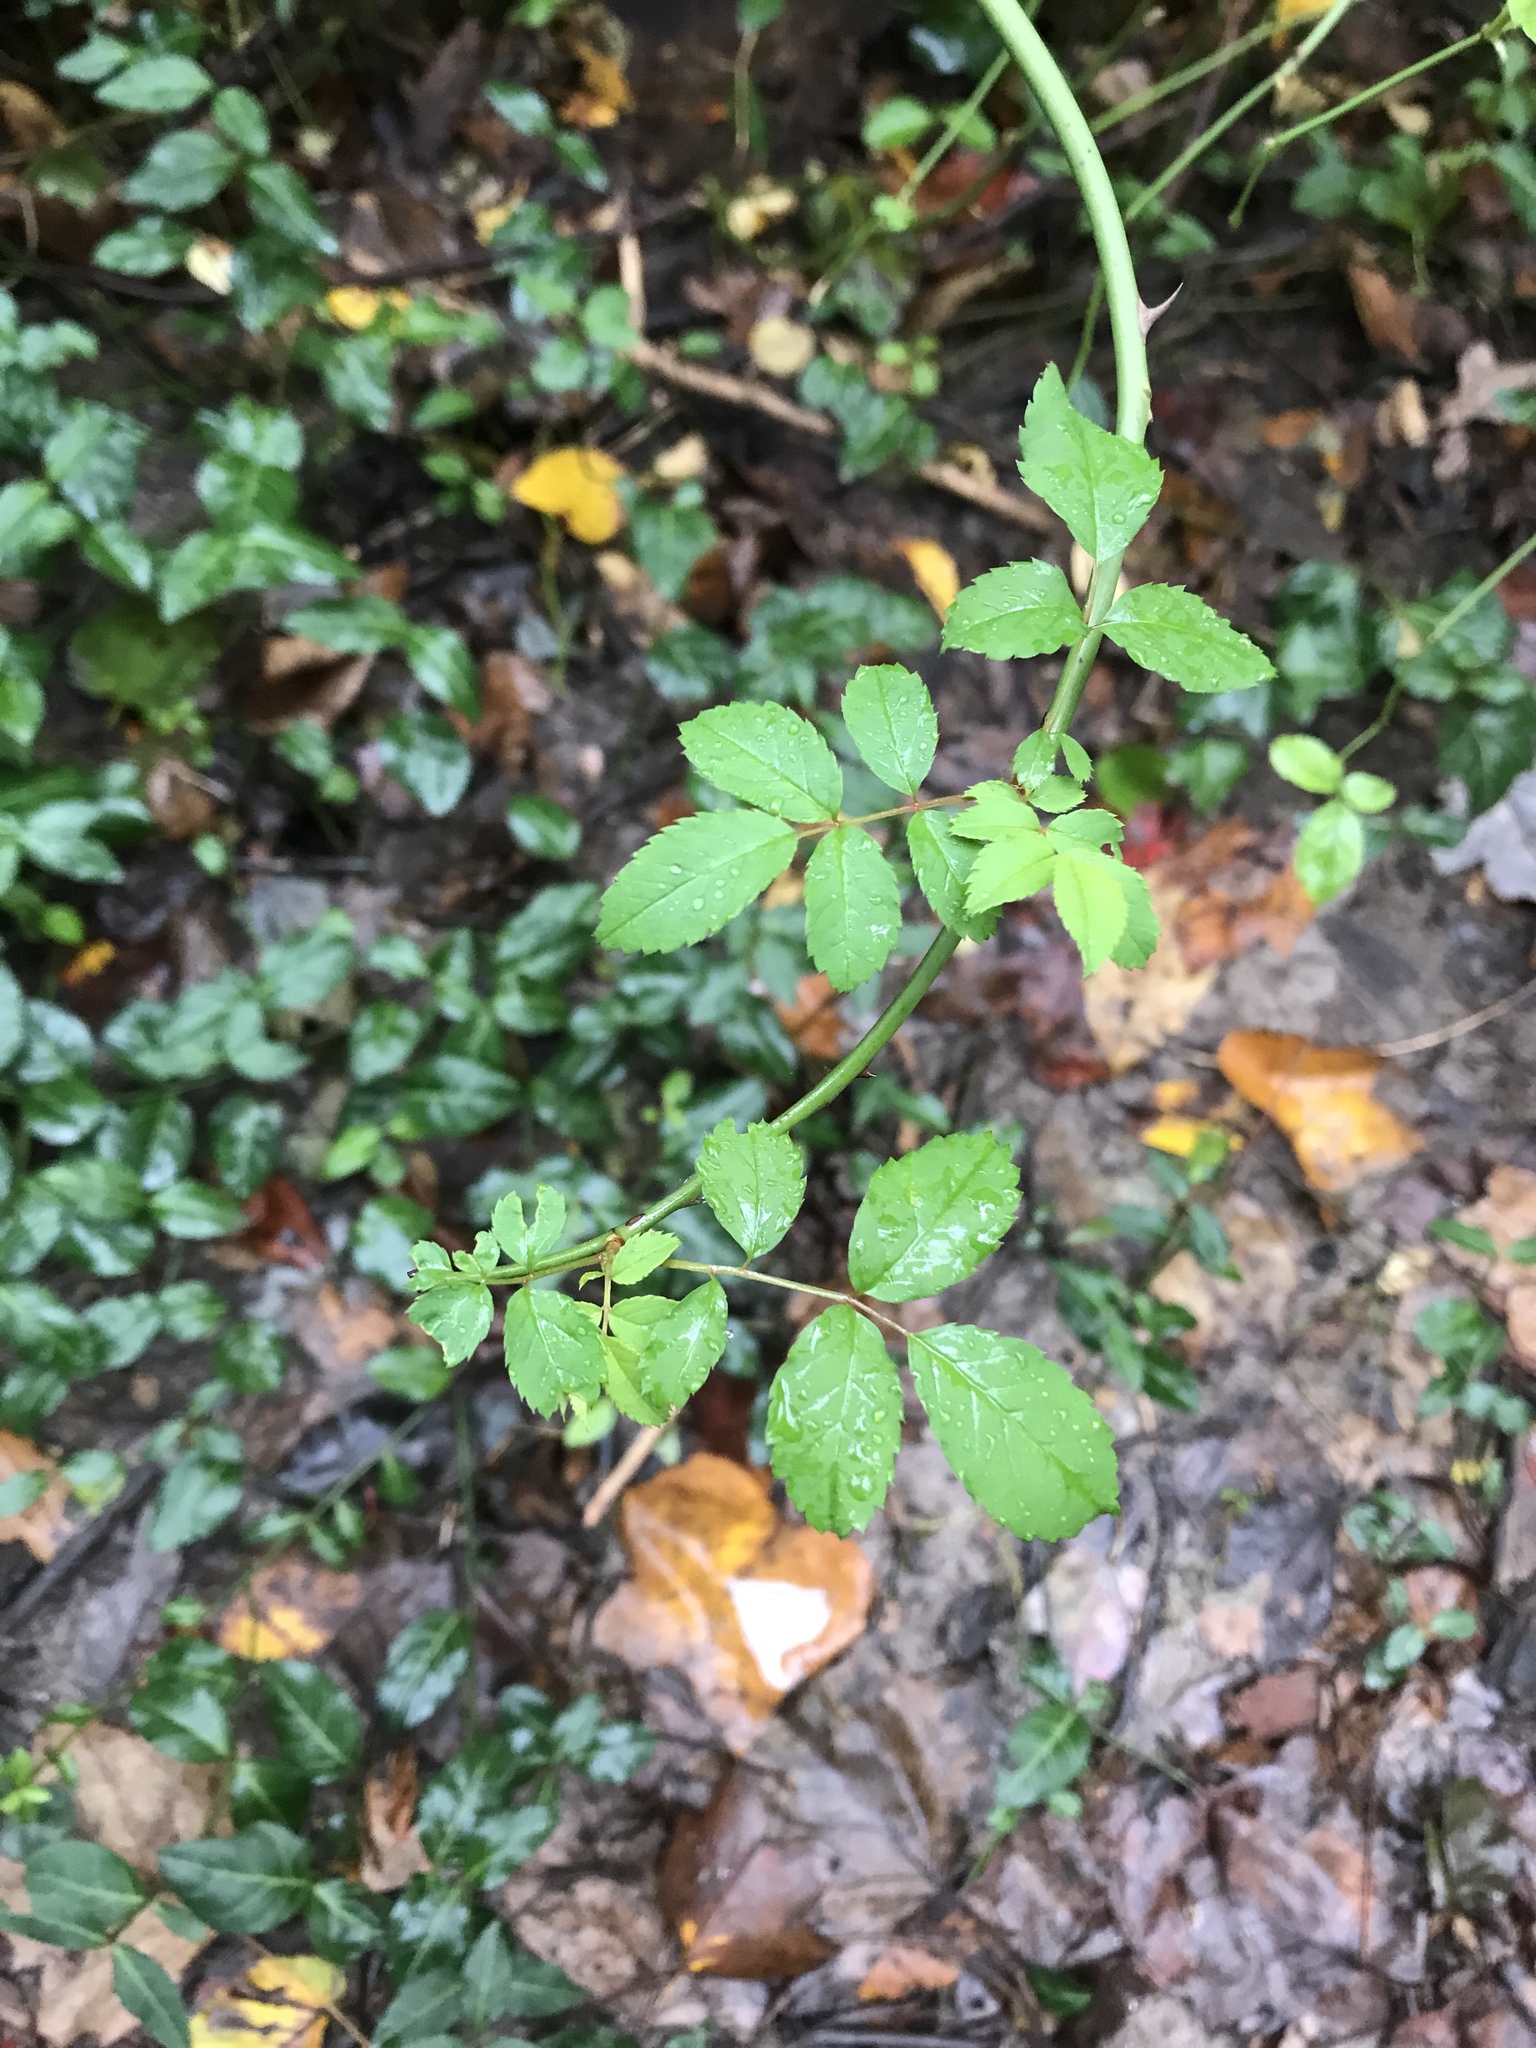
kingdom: Plantae
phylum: Tracheophyta
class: Magnoliopsida
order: Rosales
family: Rosaceae
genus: Rosa
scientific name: Rosa multiflora
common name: Multiflora rose
